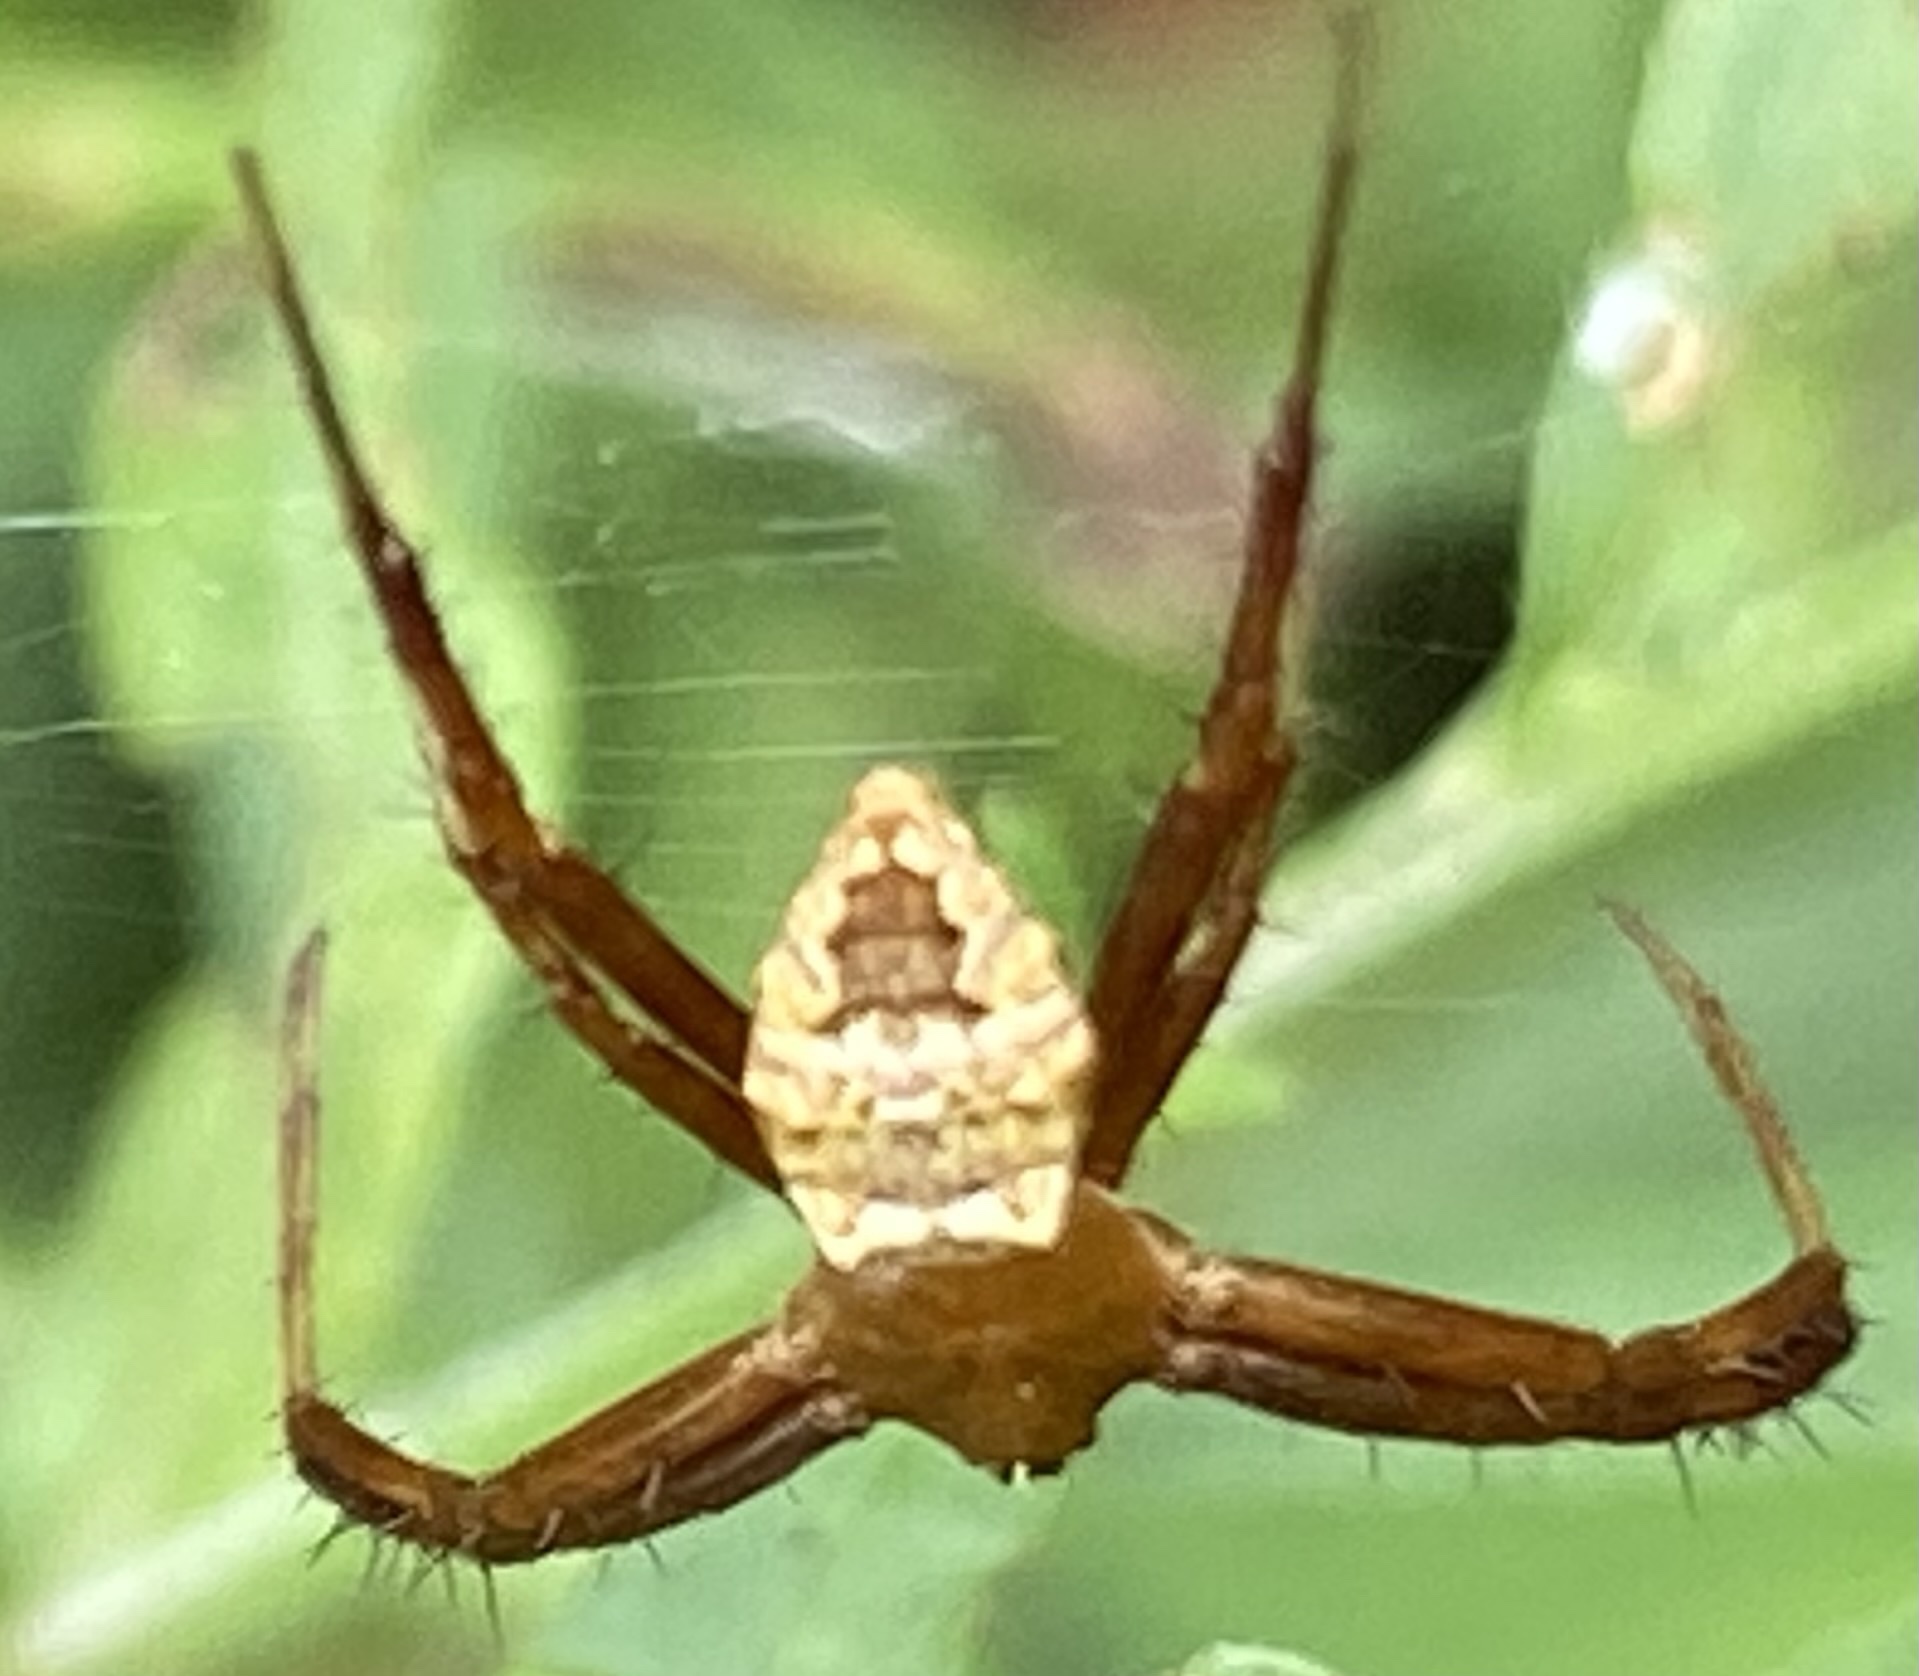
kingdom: Animalia
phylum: Arthropoda
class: Arachnida
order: Araneae
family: Araneidae
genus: Gea
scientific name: Gea heptagon
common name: Orb weavers
